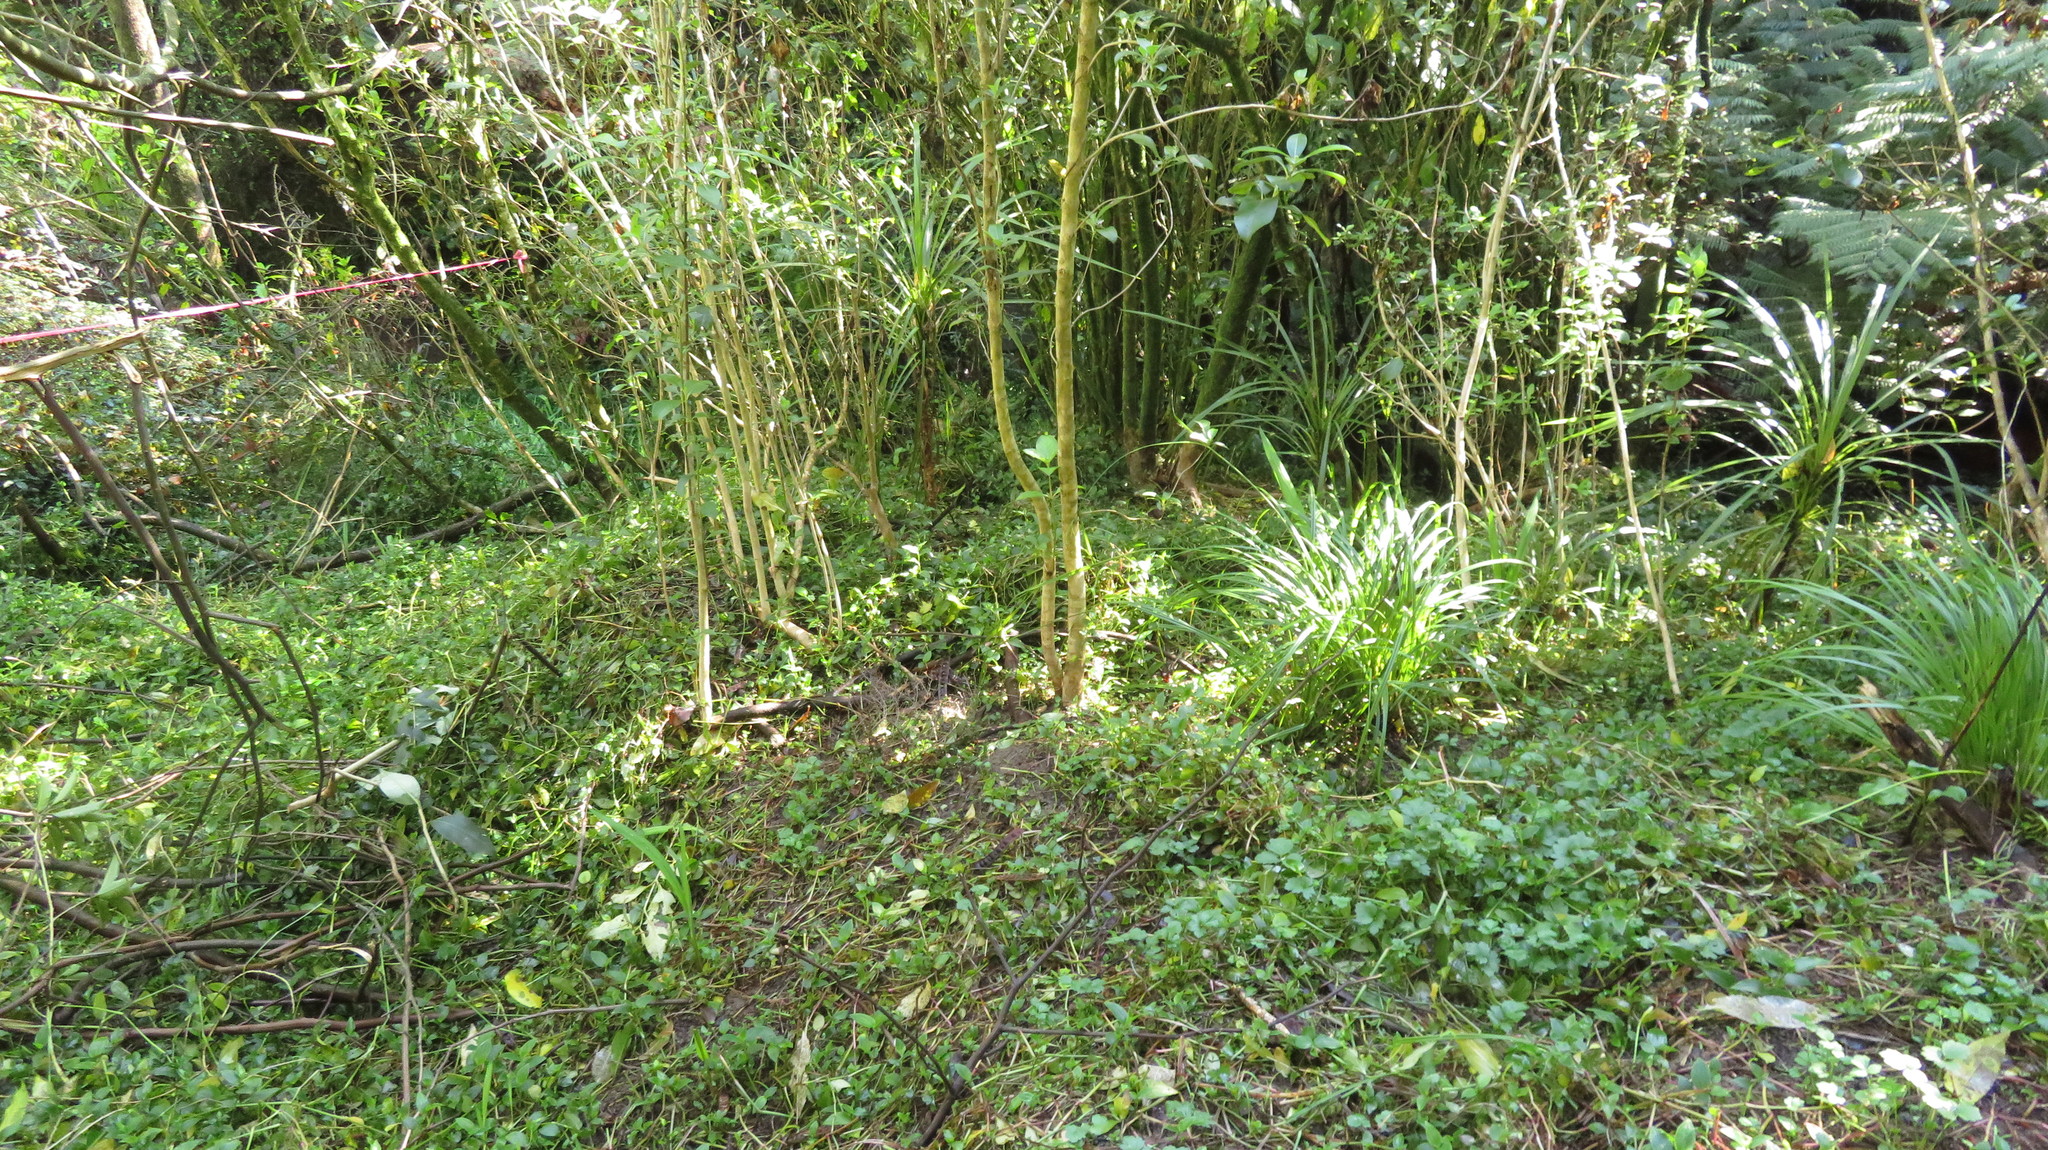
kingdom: Plantae
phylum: Tracheophyta
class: Liliopsida
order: Commelinales
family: Commelinaceae
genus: Tradescantia
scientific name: Tradescantia fluminensis
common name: Wandering-jew
